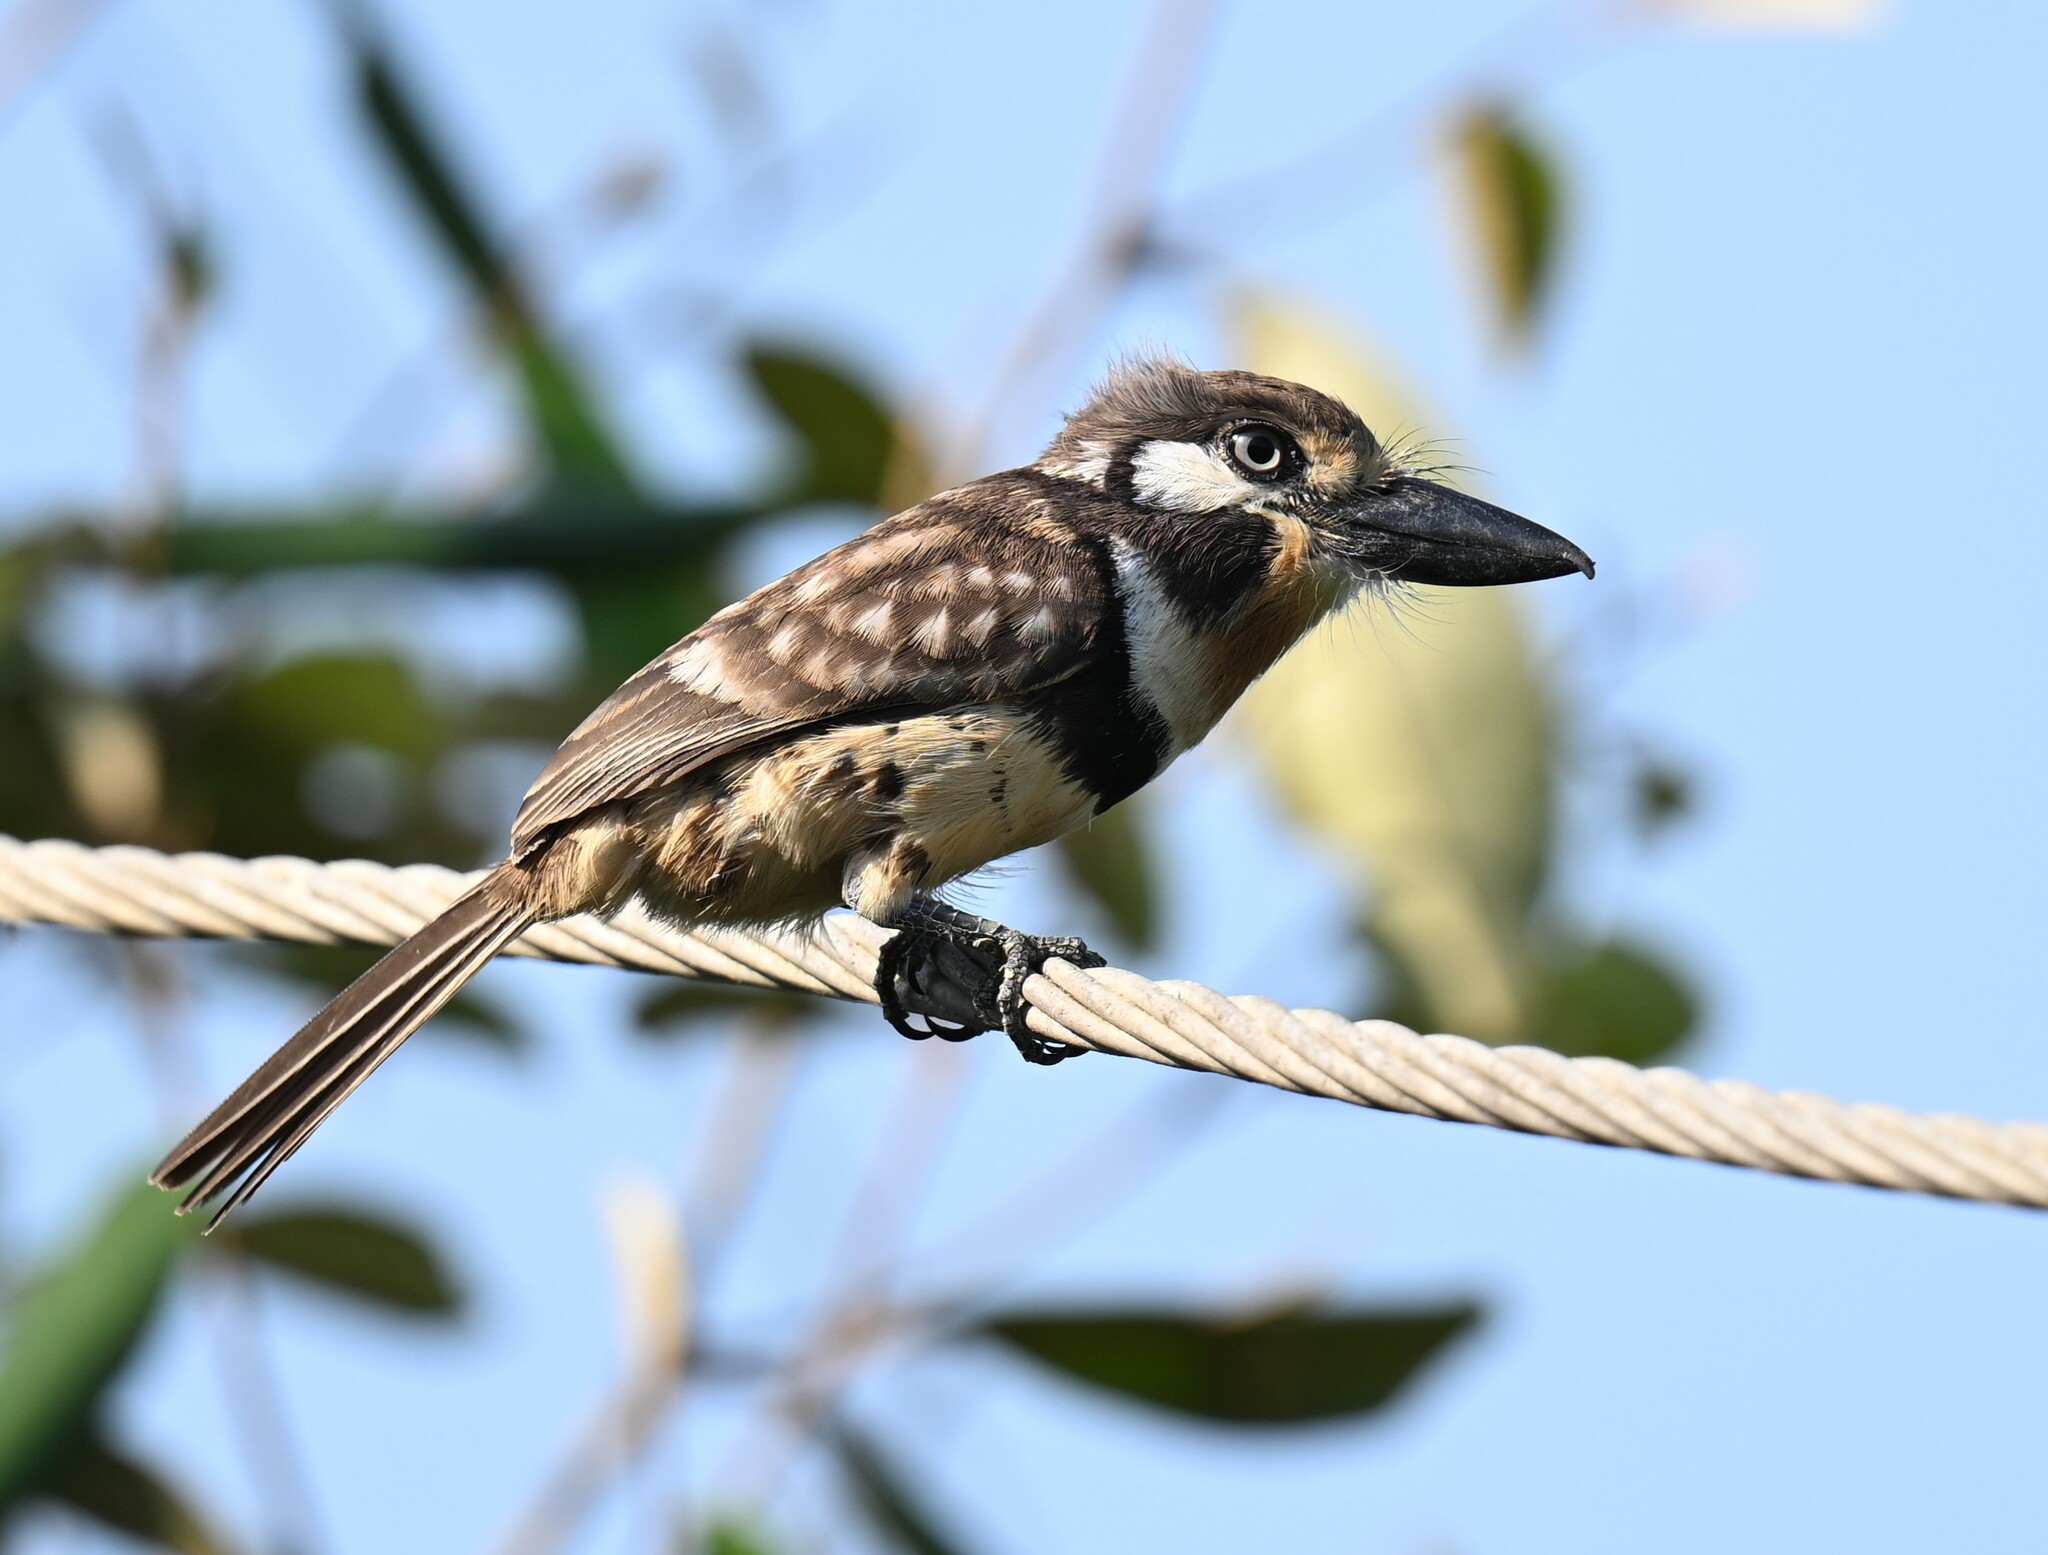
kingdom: Animalia
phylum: Chordata
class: Aves
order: Piciformes
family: Bucconidae
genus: Hypnelus
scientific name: Hypnelus ruficollis
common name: Russet-throated puffbird
